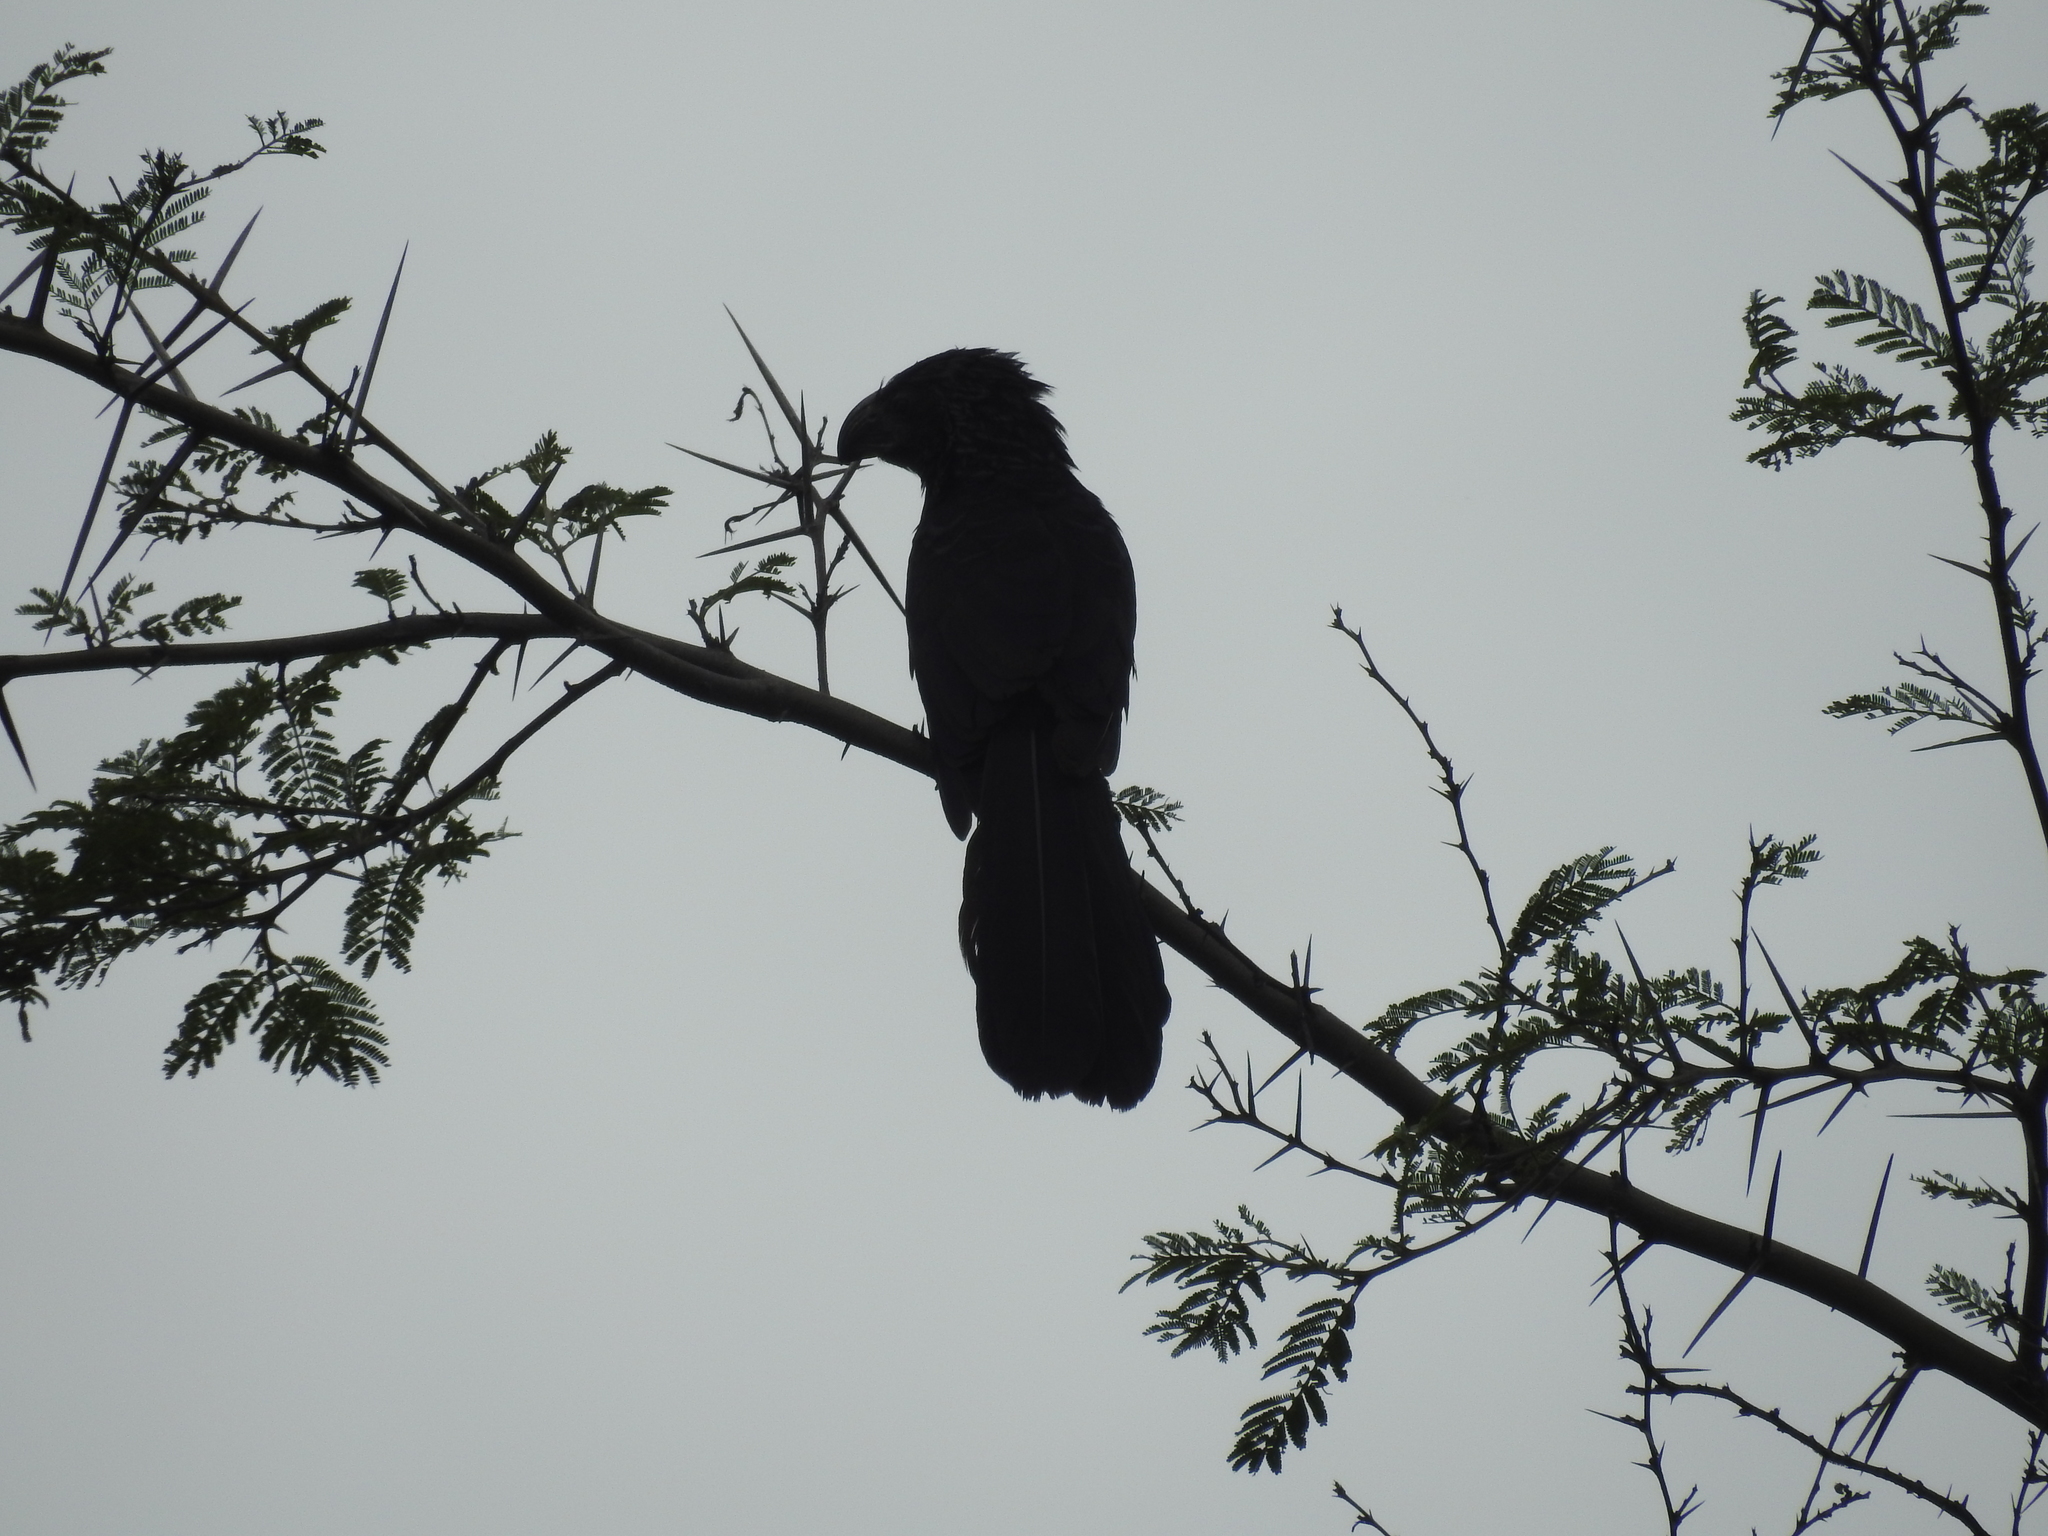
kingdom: Animalia
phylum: Chordata
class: Aves
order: Cuculiformes
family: Cuculidae
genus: Crotophaga
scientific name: Crotophaga sulcirostris
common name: Groove-billed ani
